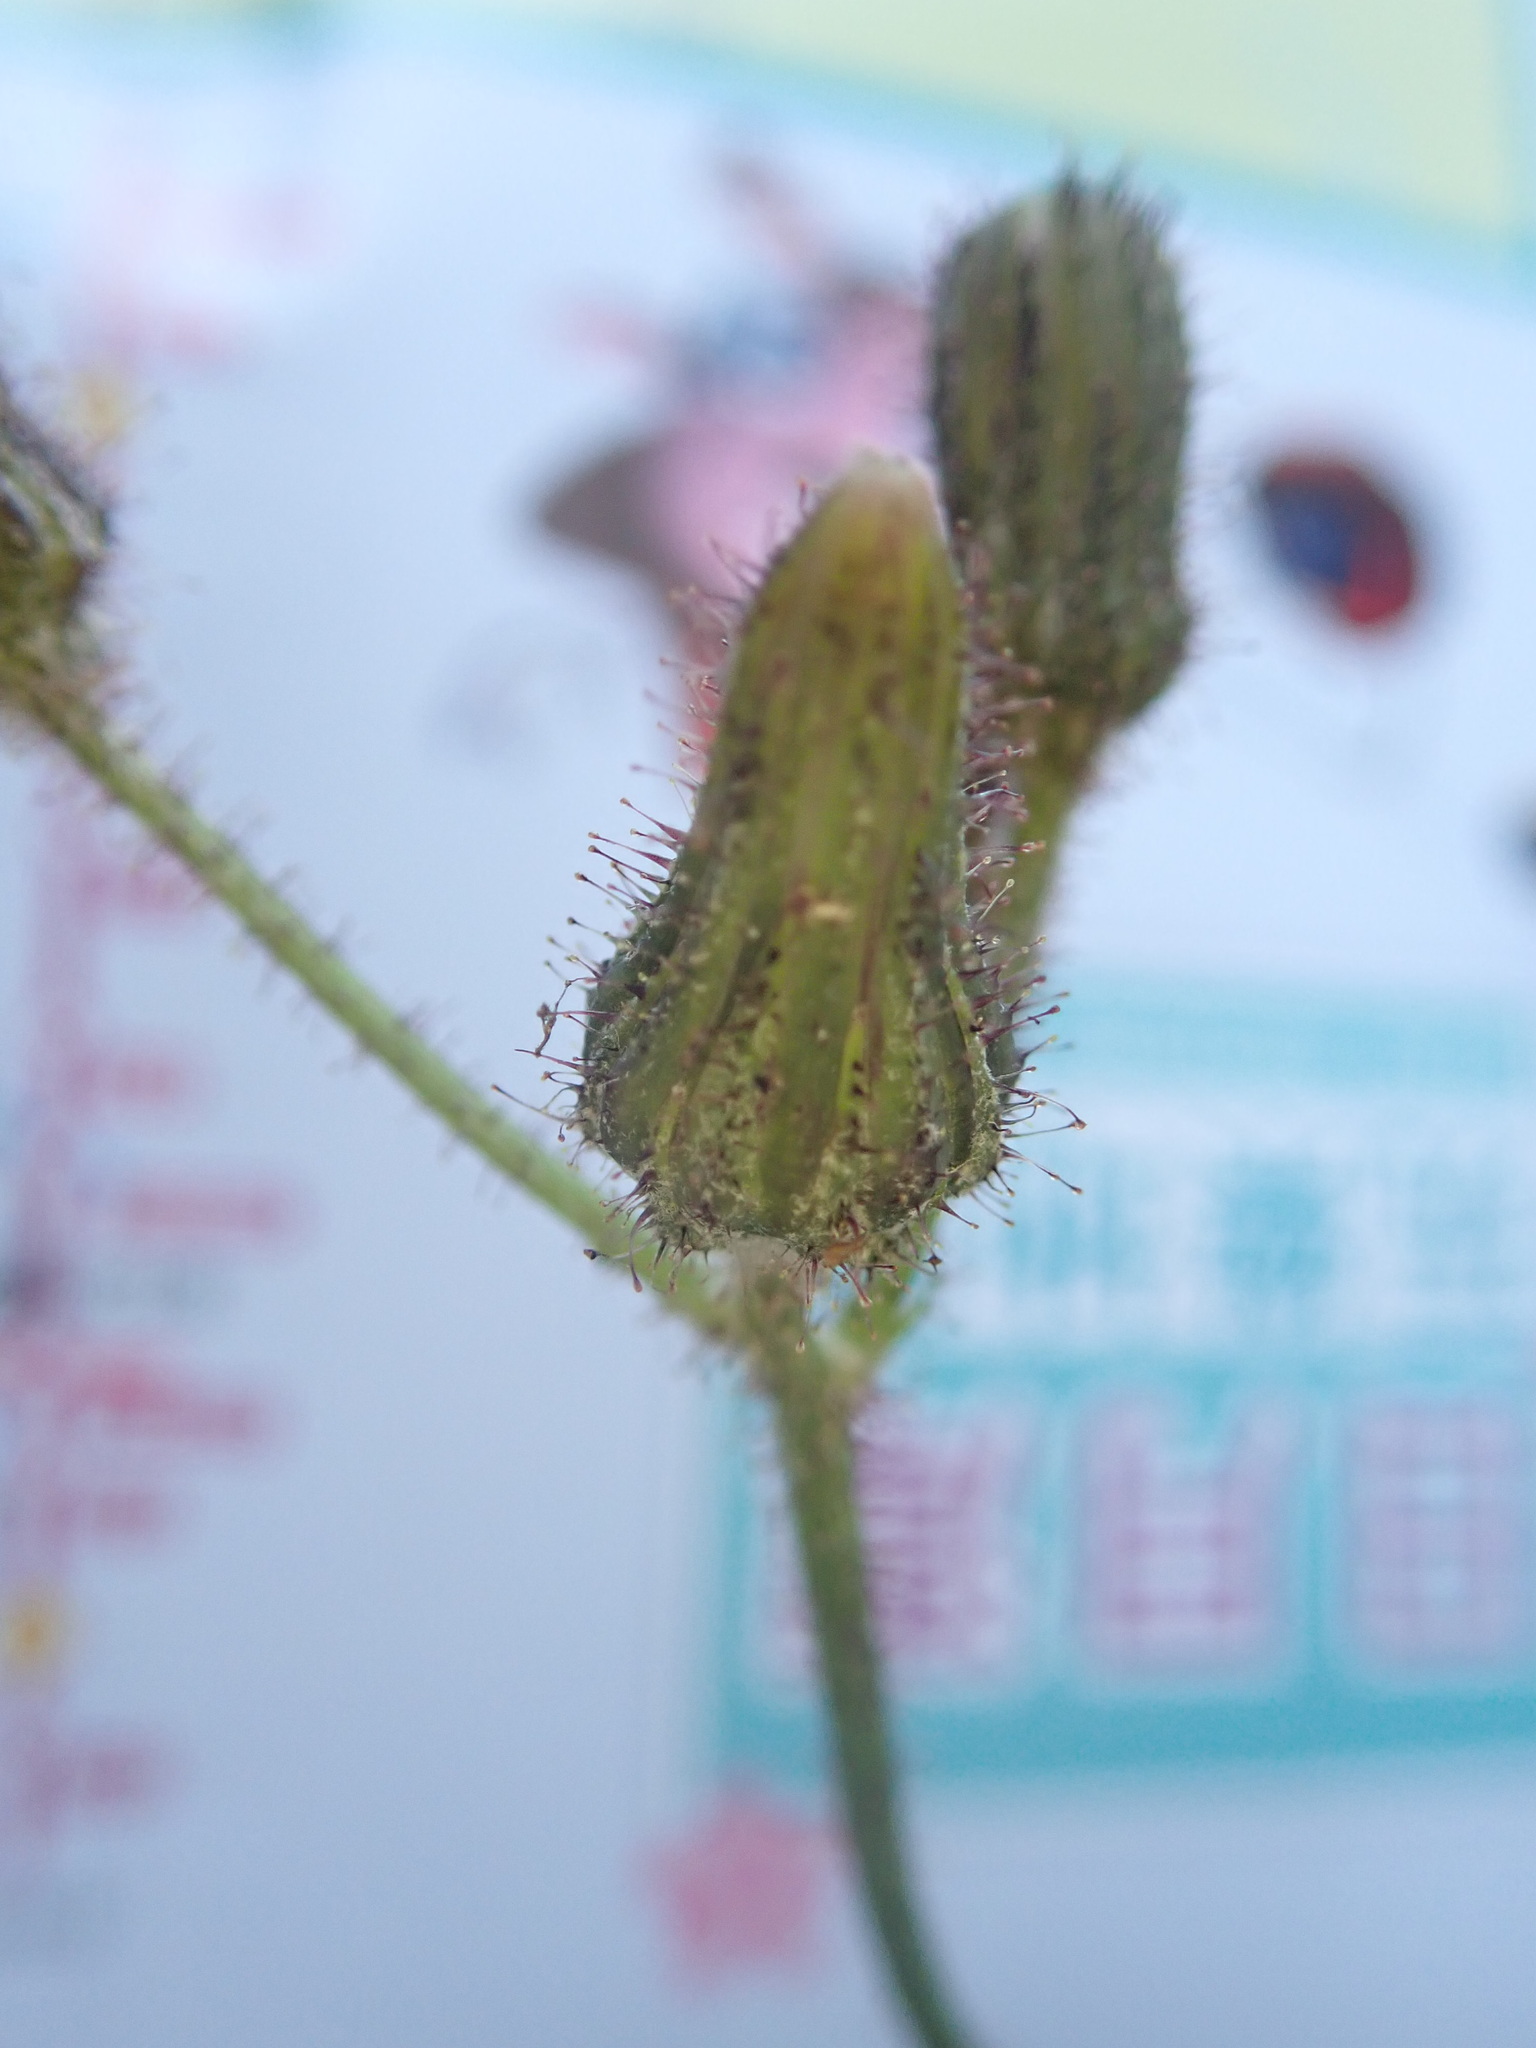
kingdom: Plantae
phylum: Tracheophyta
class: Magnoliopsida
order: Asterales
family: Asteraceae
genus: Sonchus
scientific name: Sonchus arvensis
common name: Perennial sow-thistle
